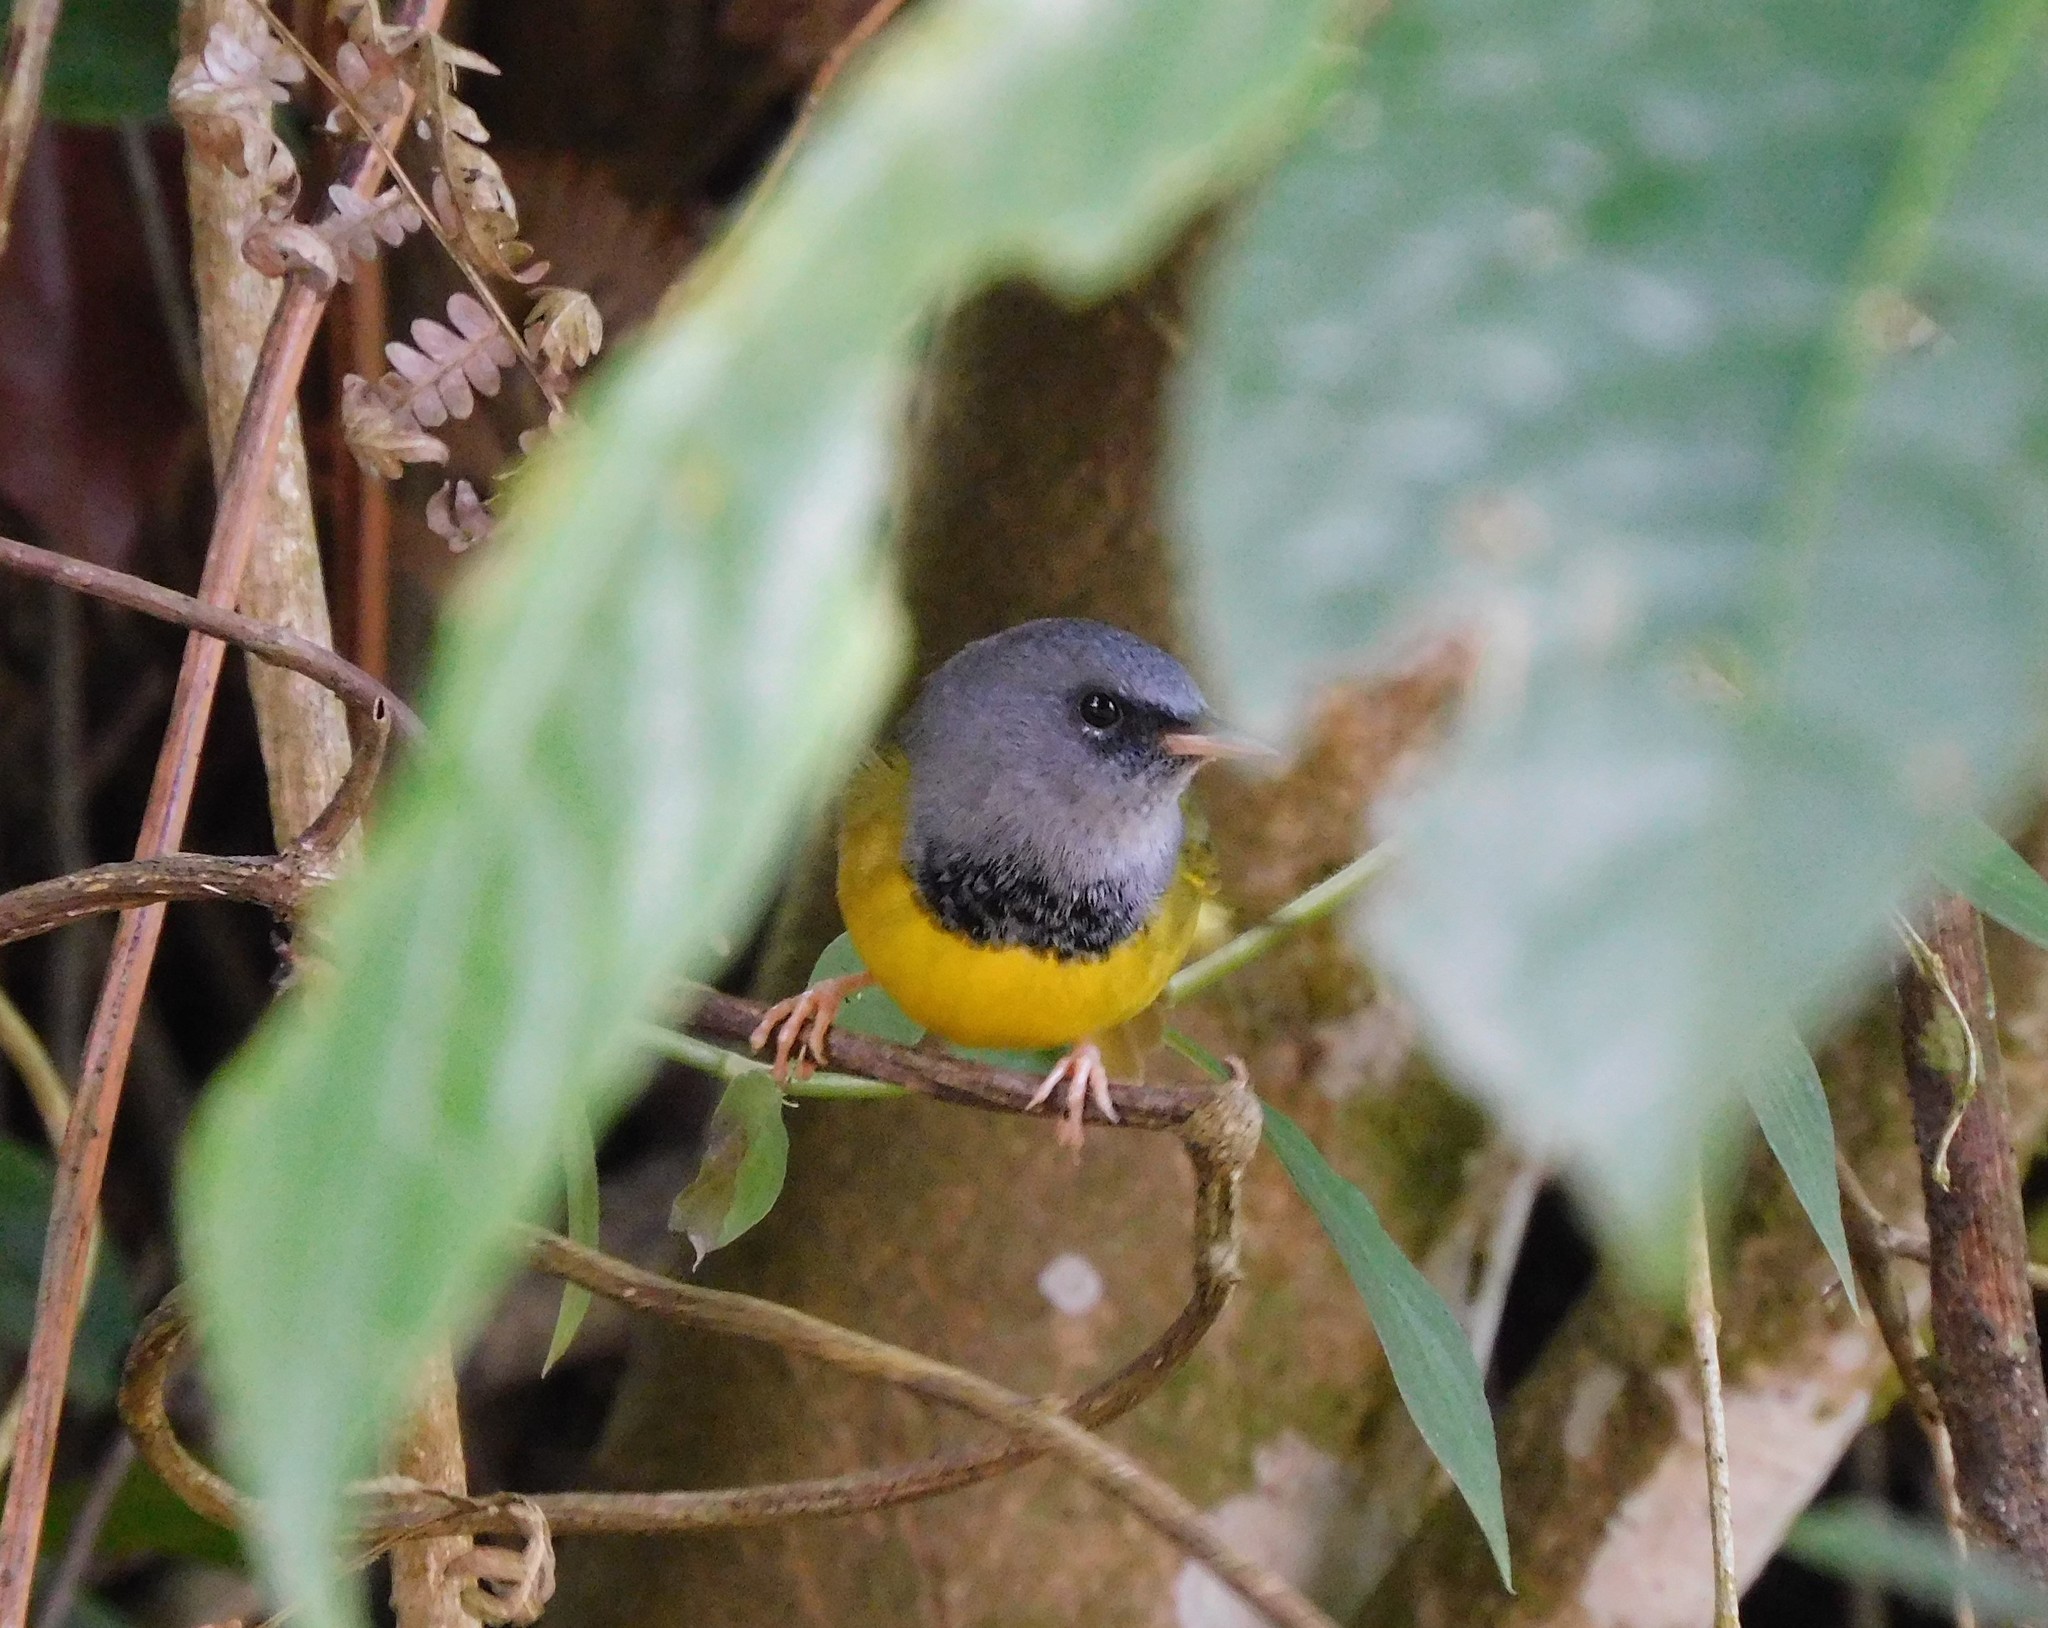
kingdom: Animalia
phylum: Chordata
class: Aves
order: Passeriformes
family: Parulidae
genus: Geothlypis
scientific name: Geothlypis philadelphia
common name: Mourning warbler
